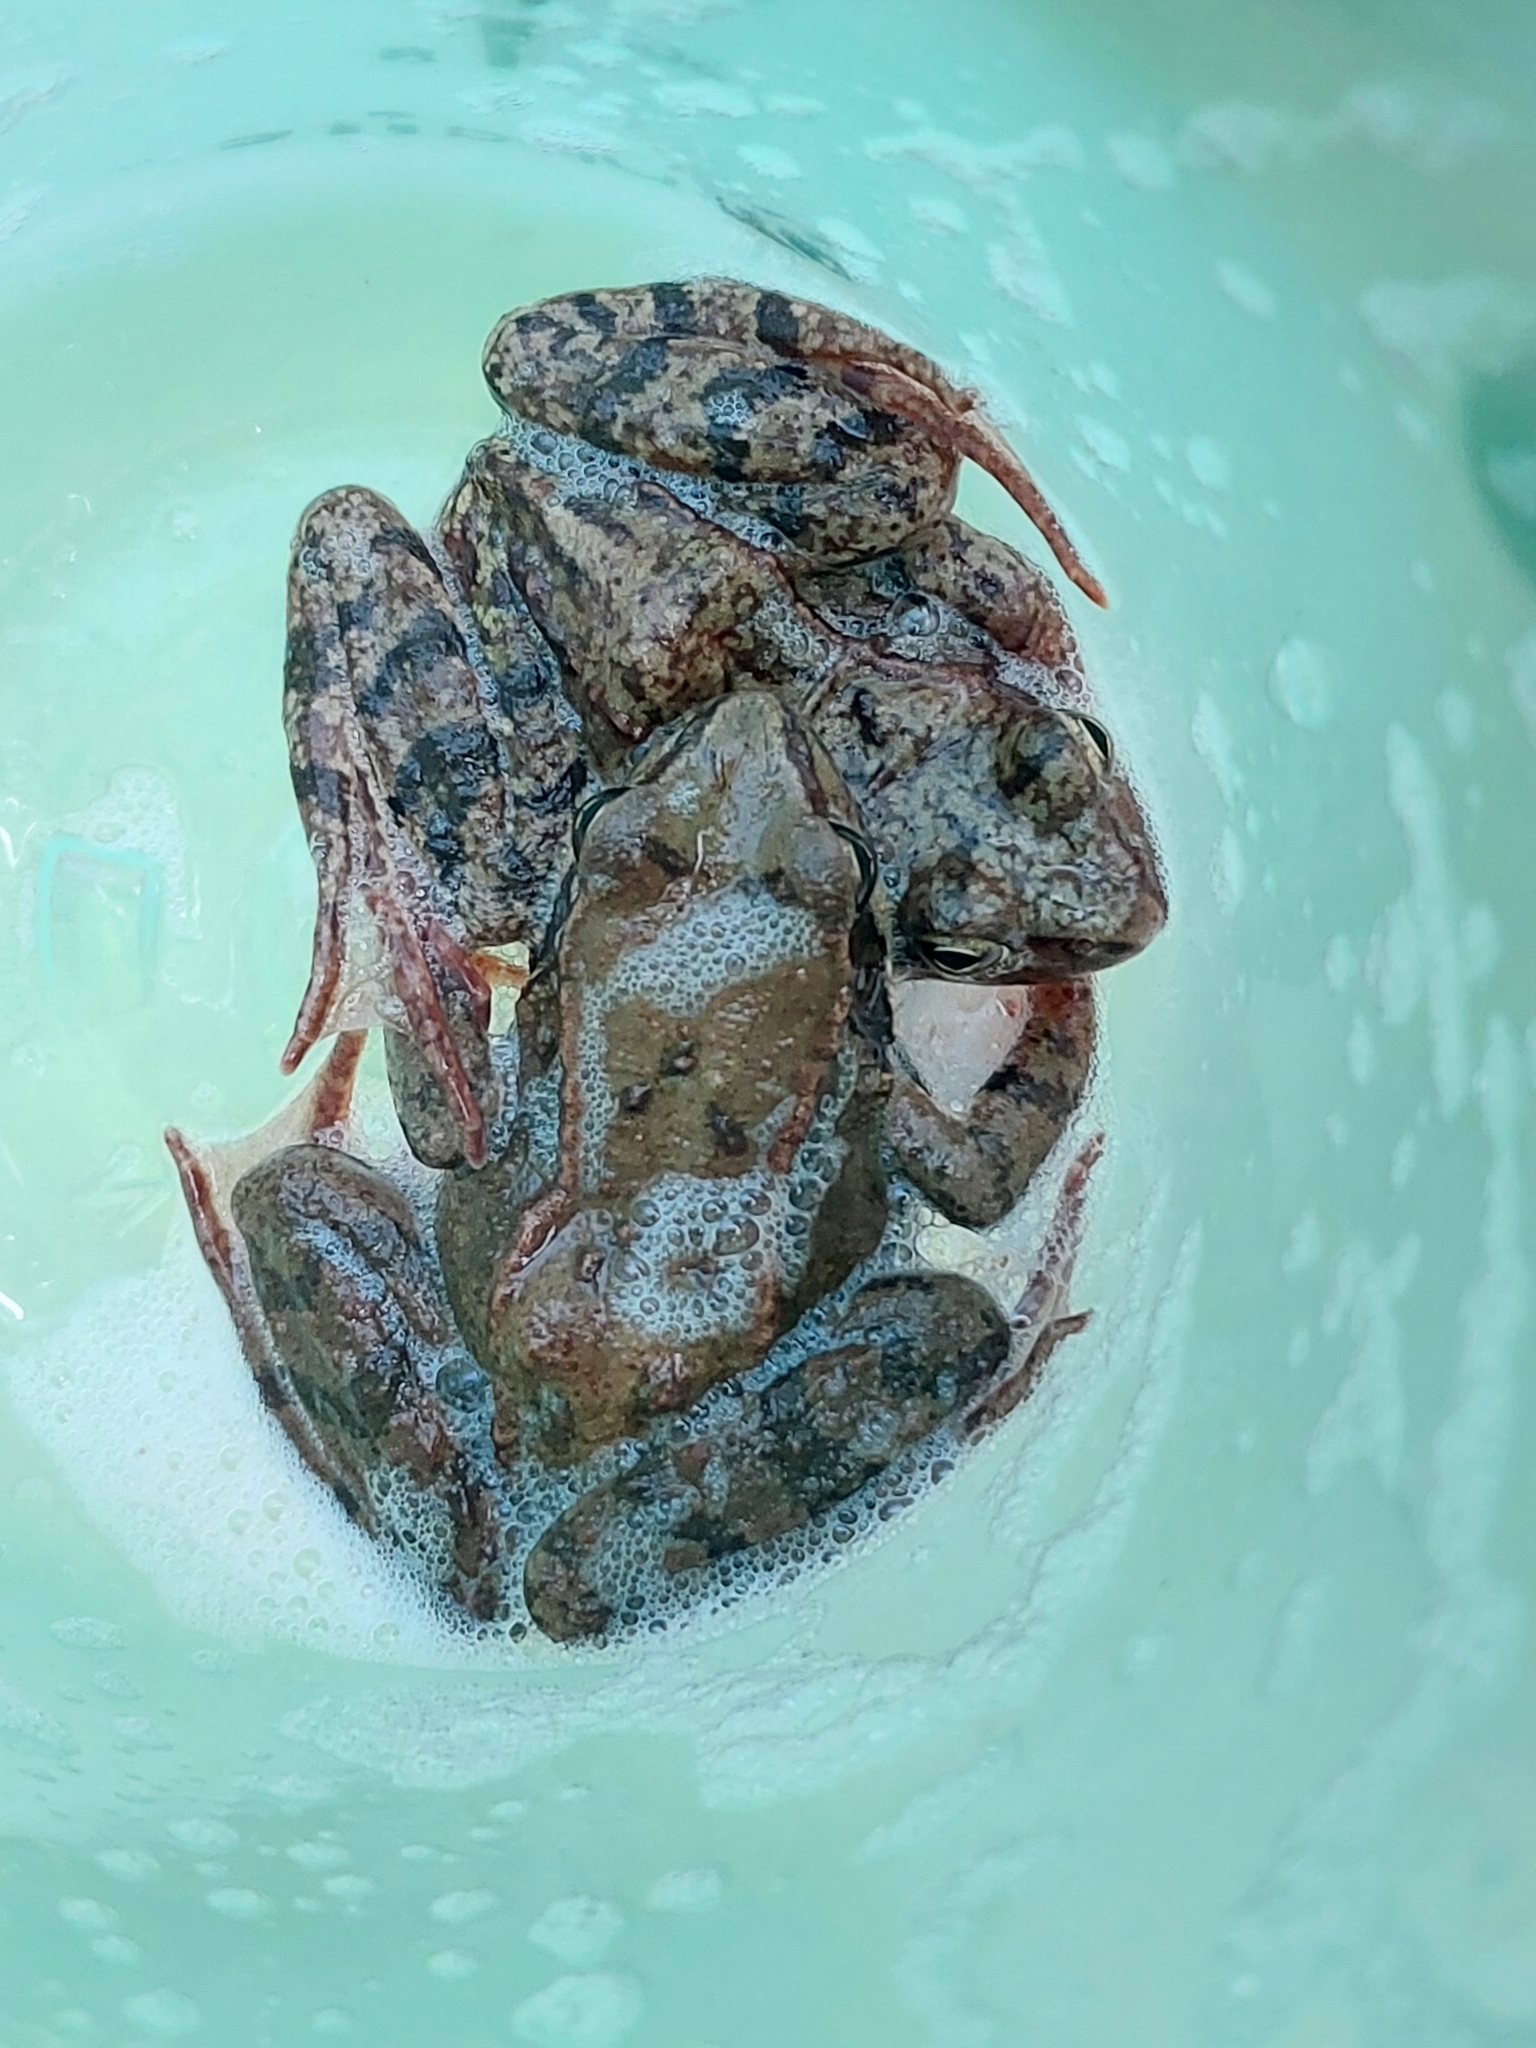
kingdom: Animalia
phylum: Chordata
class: Amphibia
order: Anura
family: Ranidae
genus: Rana
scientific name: Rana temporaria
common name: Common frog
